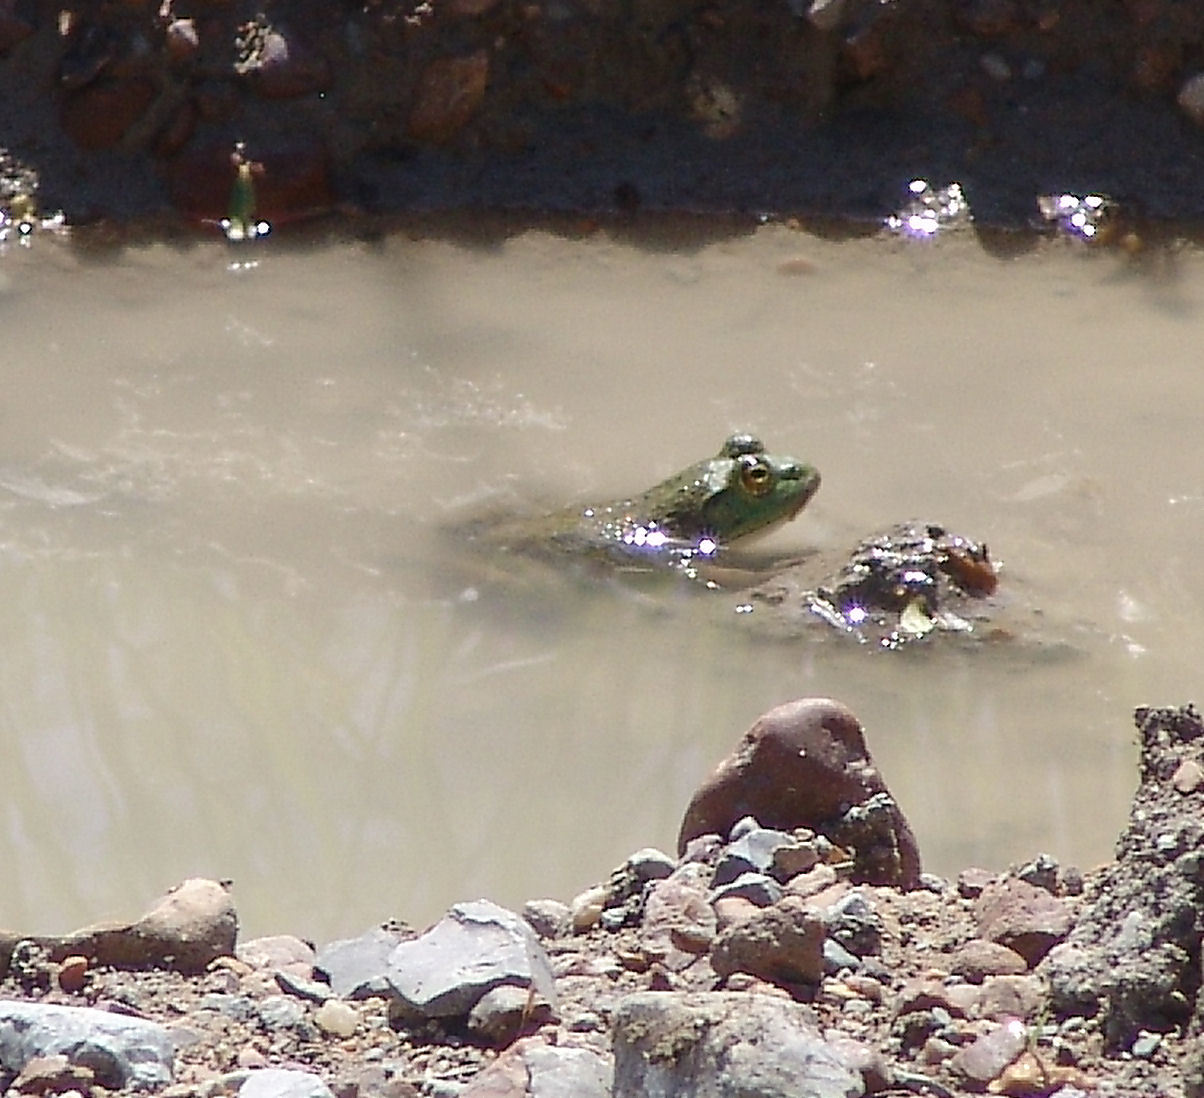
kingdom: Animalia
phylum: Chordata
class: Amphibia
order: Anura
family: Ranidae
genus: Lithobates
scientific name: Lithobates catesbeianus
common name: American bullfrog
